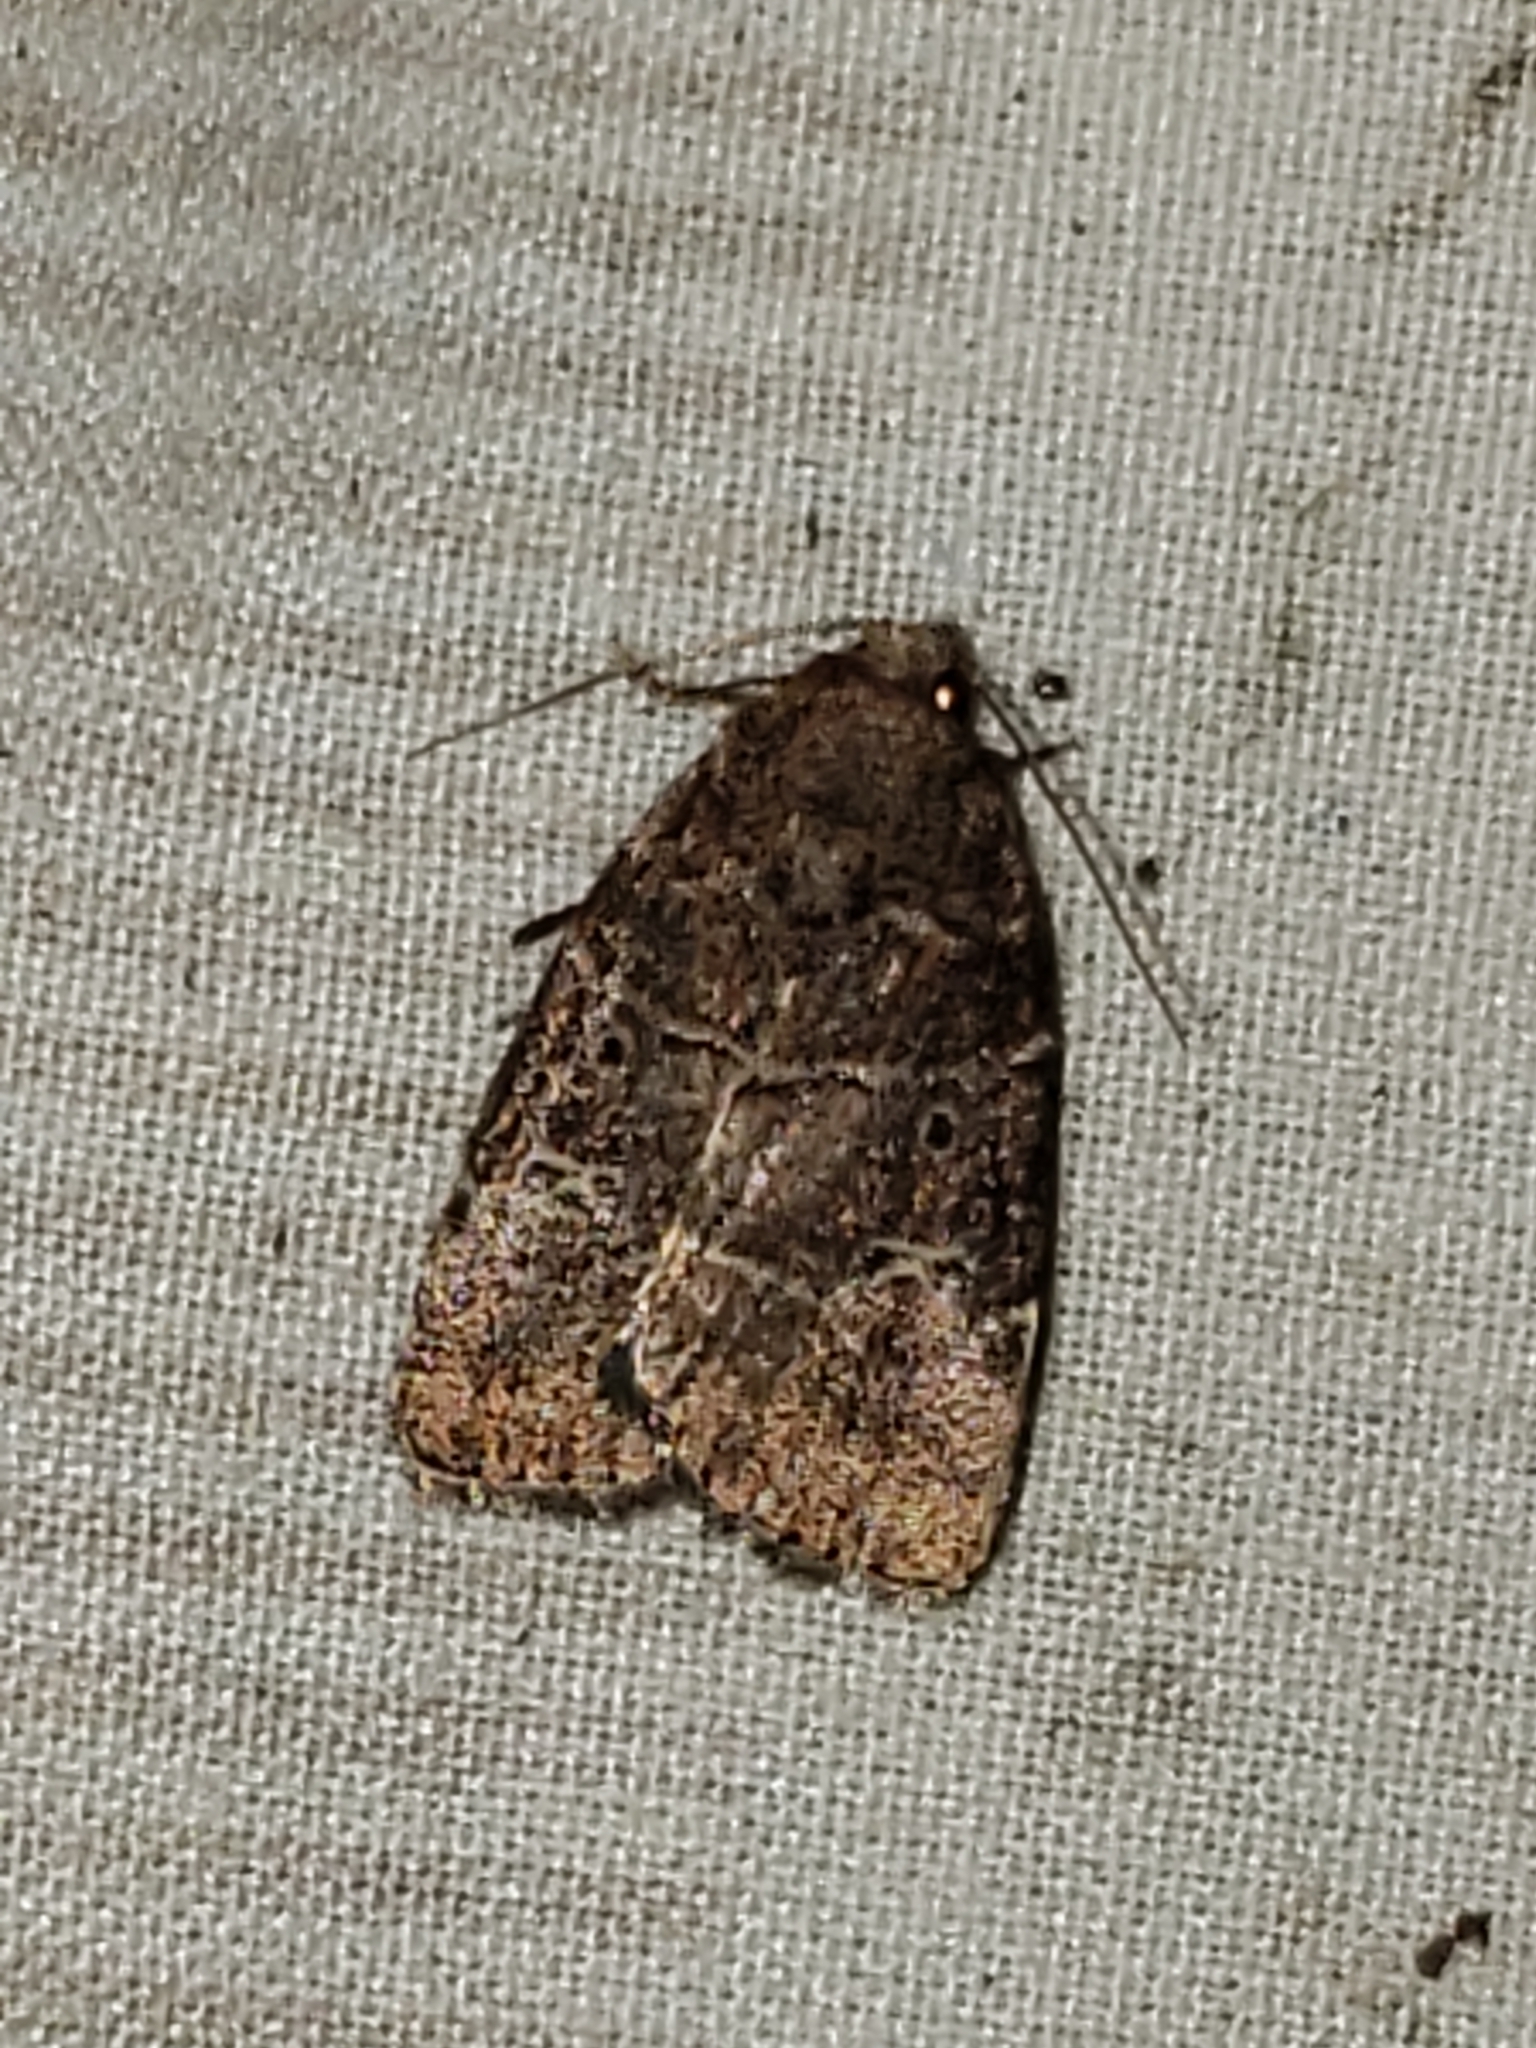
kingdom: Animalia
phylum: Arthropoda
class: Insecta
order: Lepidoptera
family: Noctuidae
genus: Elaphria
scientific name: Elaphria grata
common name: Grateful midget moth
